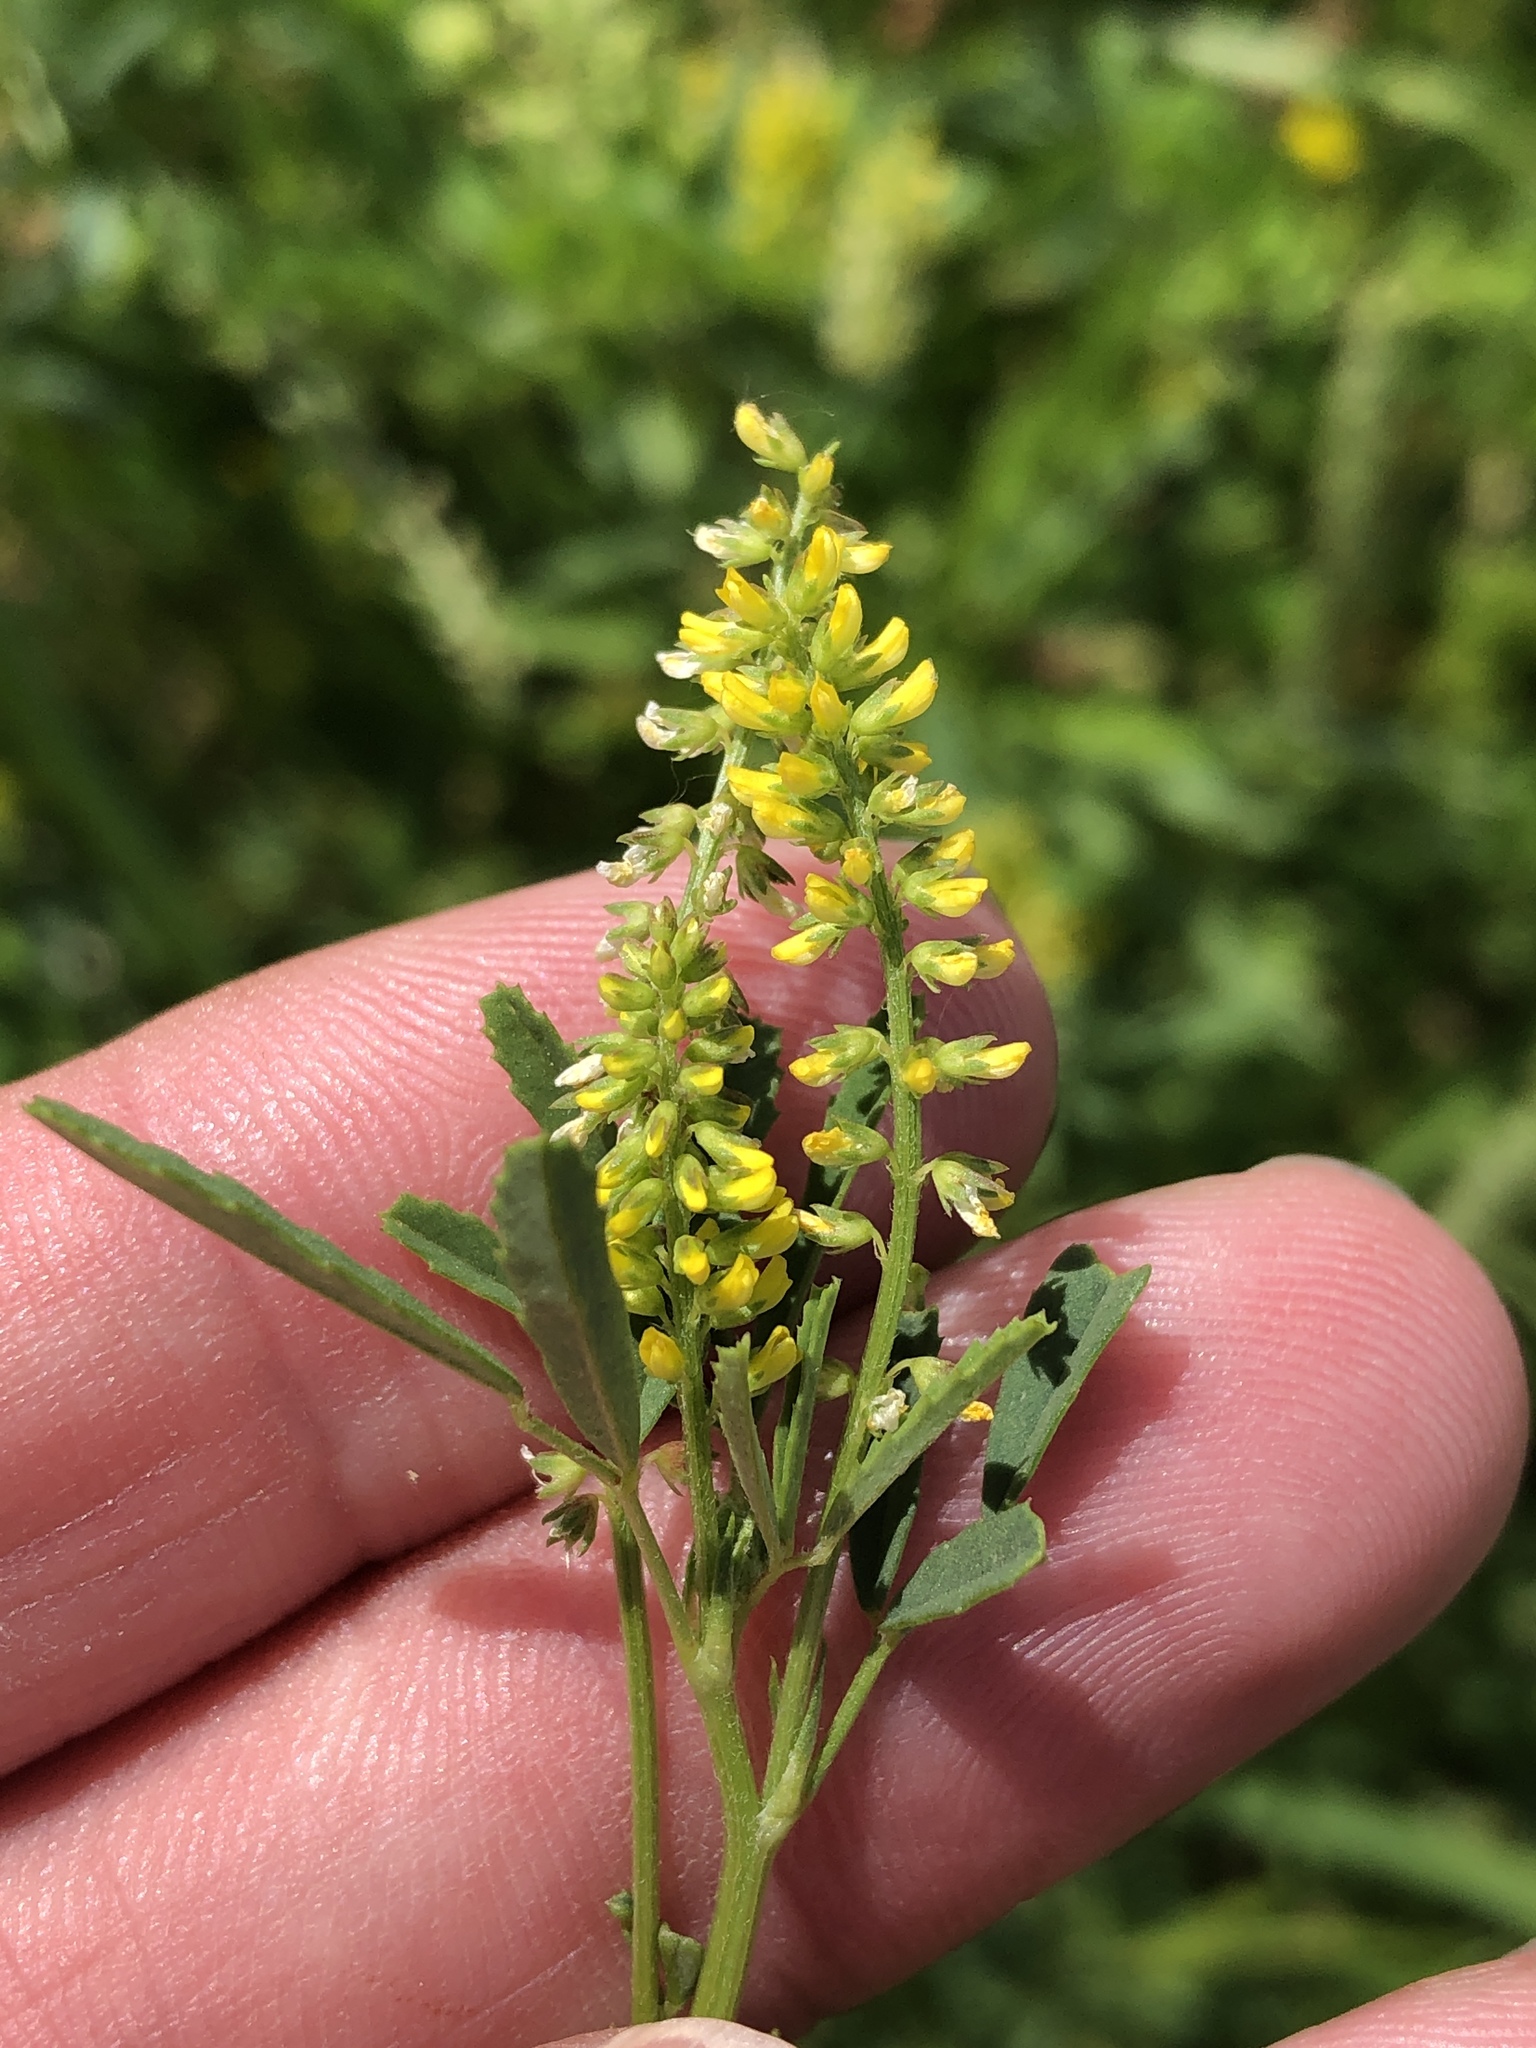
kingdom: Plantae
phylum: Tracheophyta
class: Magnoliopsida
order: Fabales
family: Fabaceae
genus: Melilotus
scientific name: Melilotus indicus
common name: Small melilot
